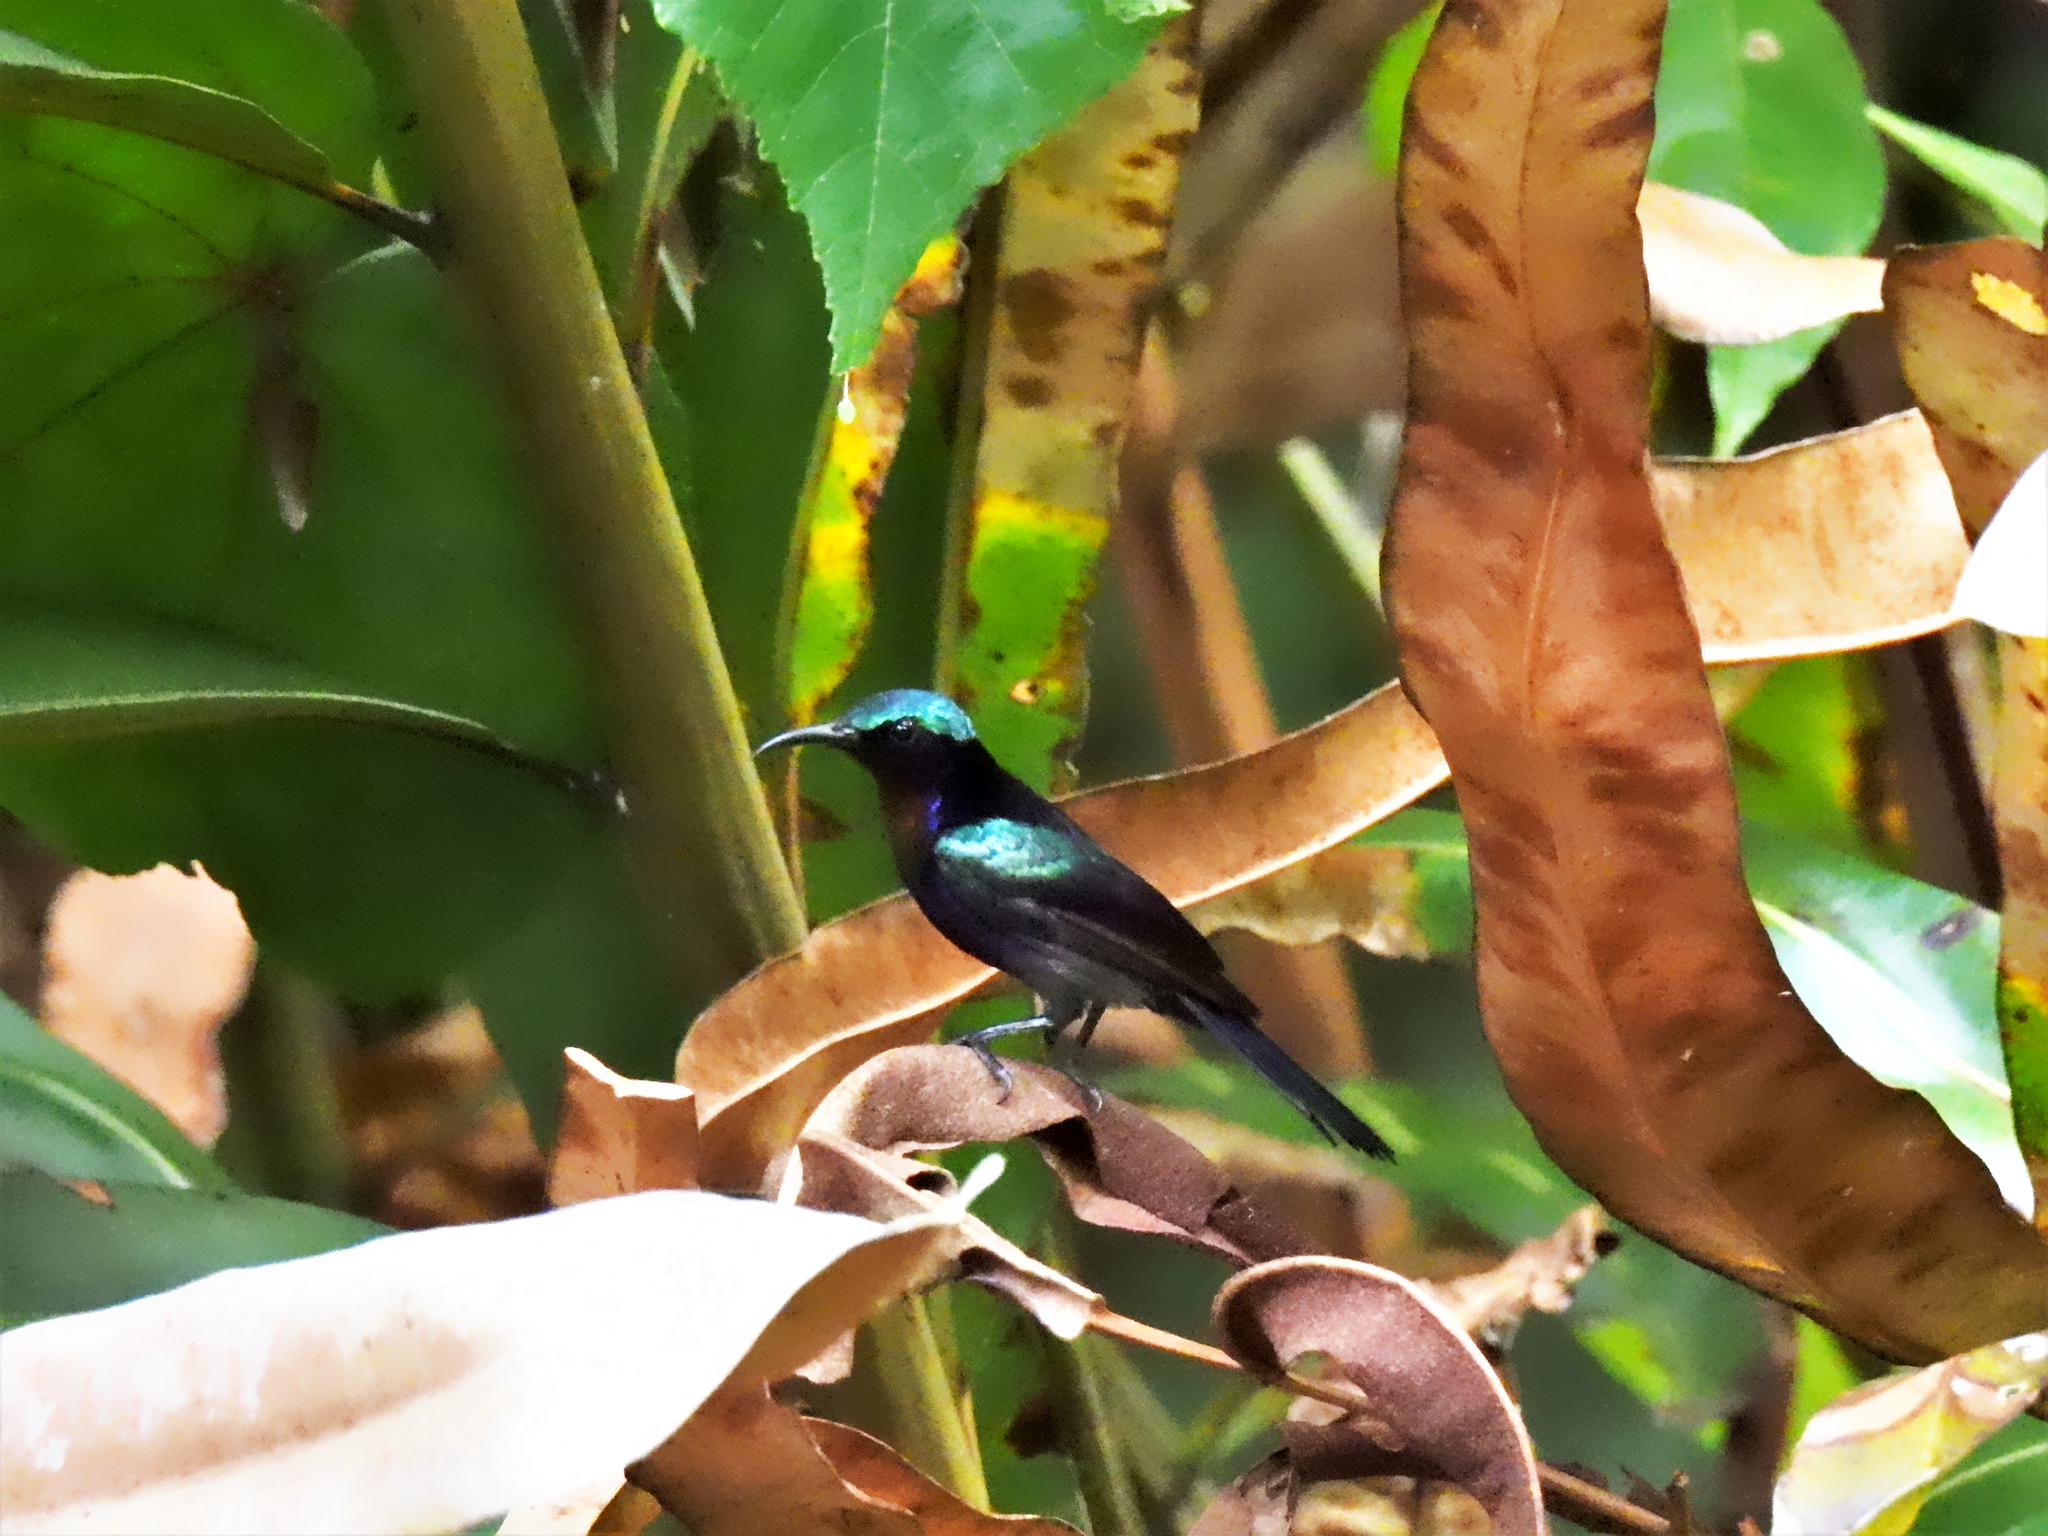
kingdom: Animalia
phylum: Chordata
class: Aves
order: Passeriformes
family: Nectariniidae
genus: Leptocoma
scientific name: Leptocoma calcostetha
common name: Copper-throated sunbird
